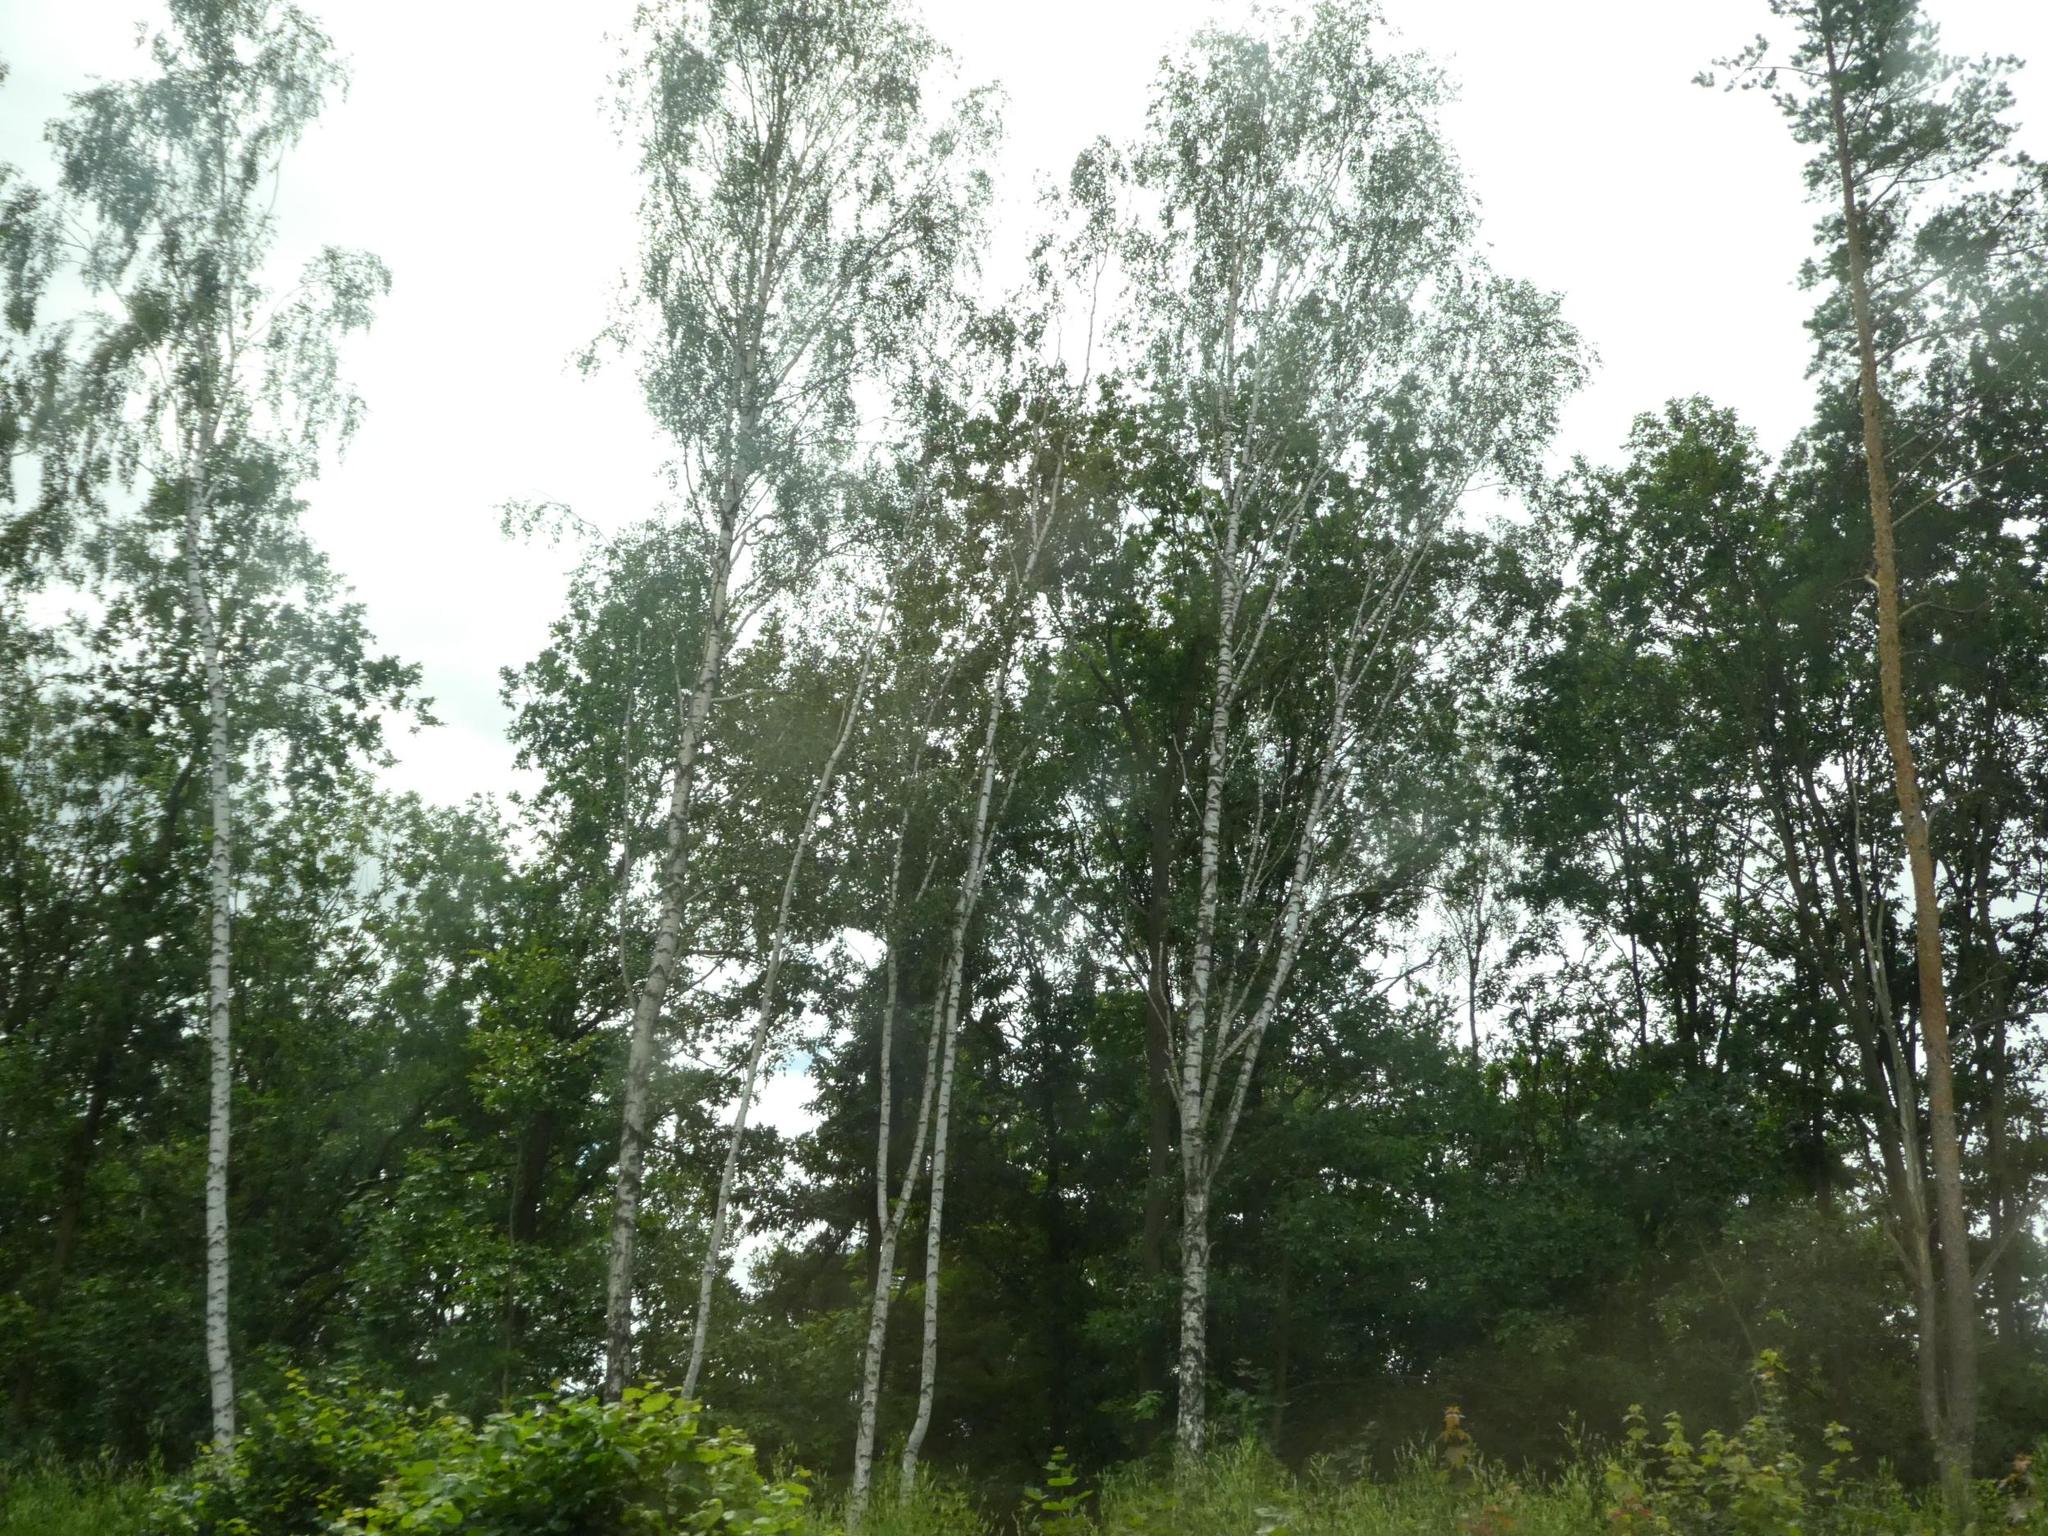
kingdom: Plantae
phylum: Tracheophyta
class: Magnoliopsida
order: Fagales
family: Betulaceae
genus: Betula
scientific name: Betula pendula
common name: Silver birch
